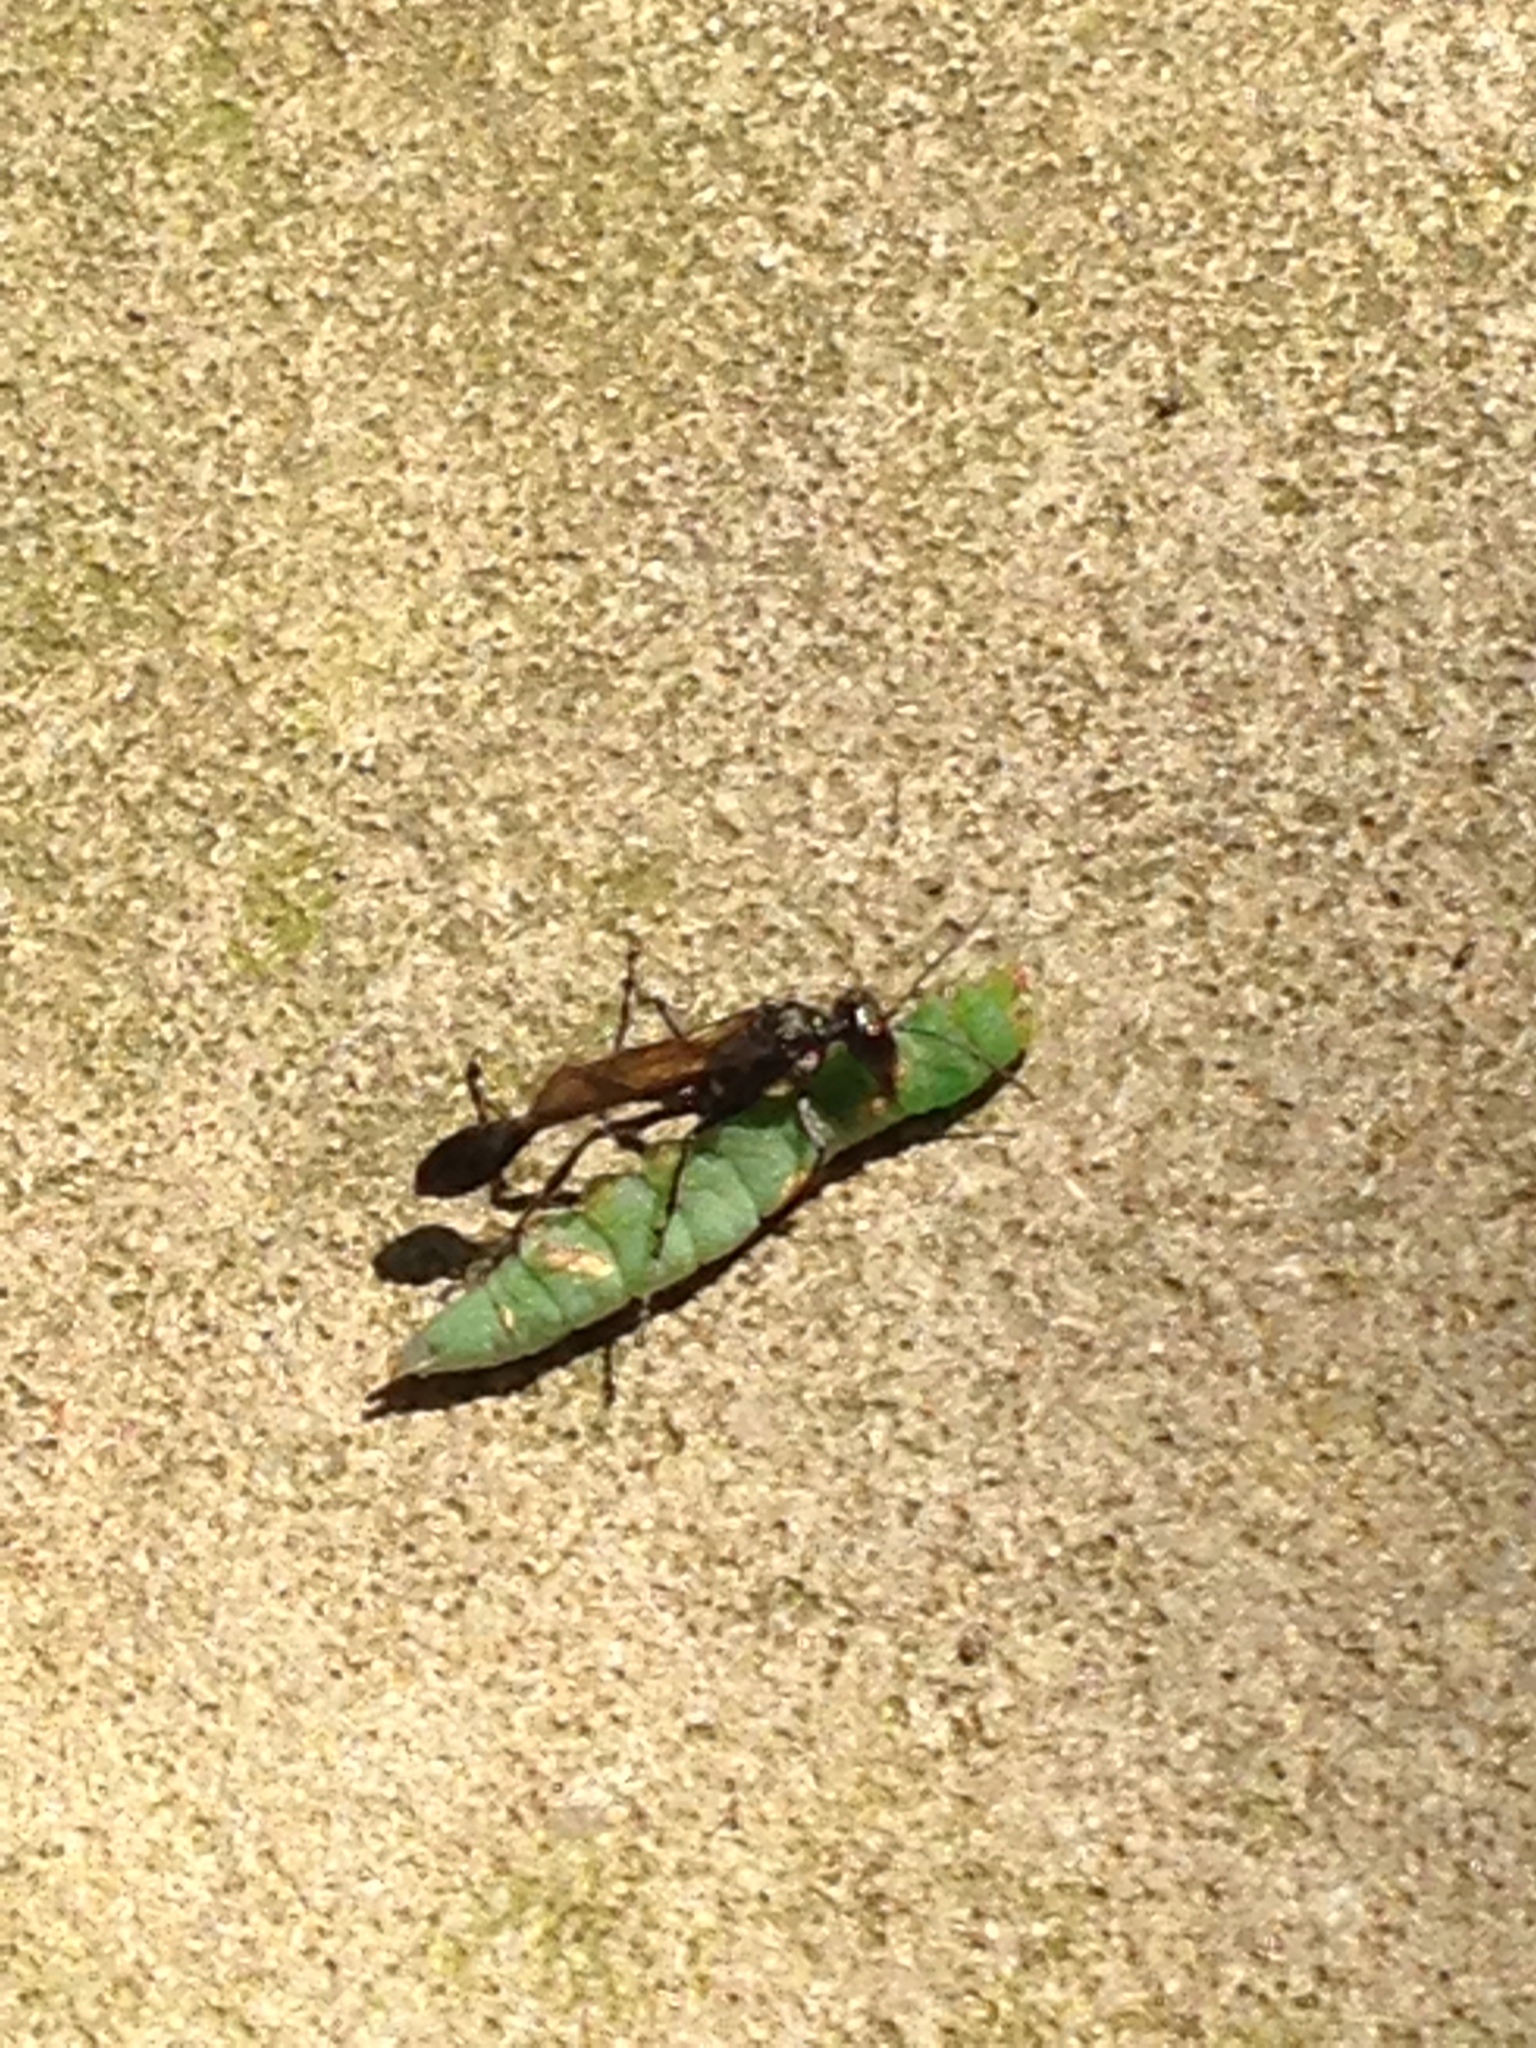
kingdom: Animalia
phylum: Arthropoda
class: Insecta
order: Hymenoptera
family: Sphecidae
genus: Eremnophila
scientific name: Eremnophila aureonotata
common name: Gold-marked thread-waisted wasp
